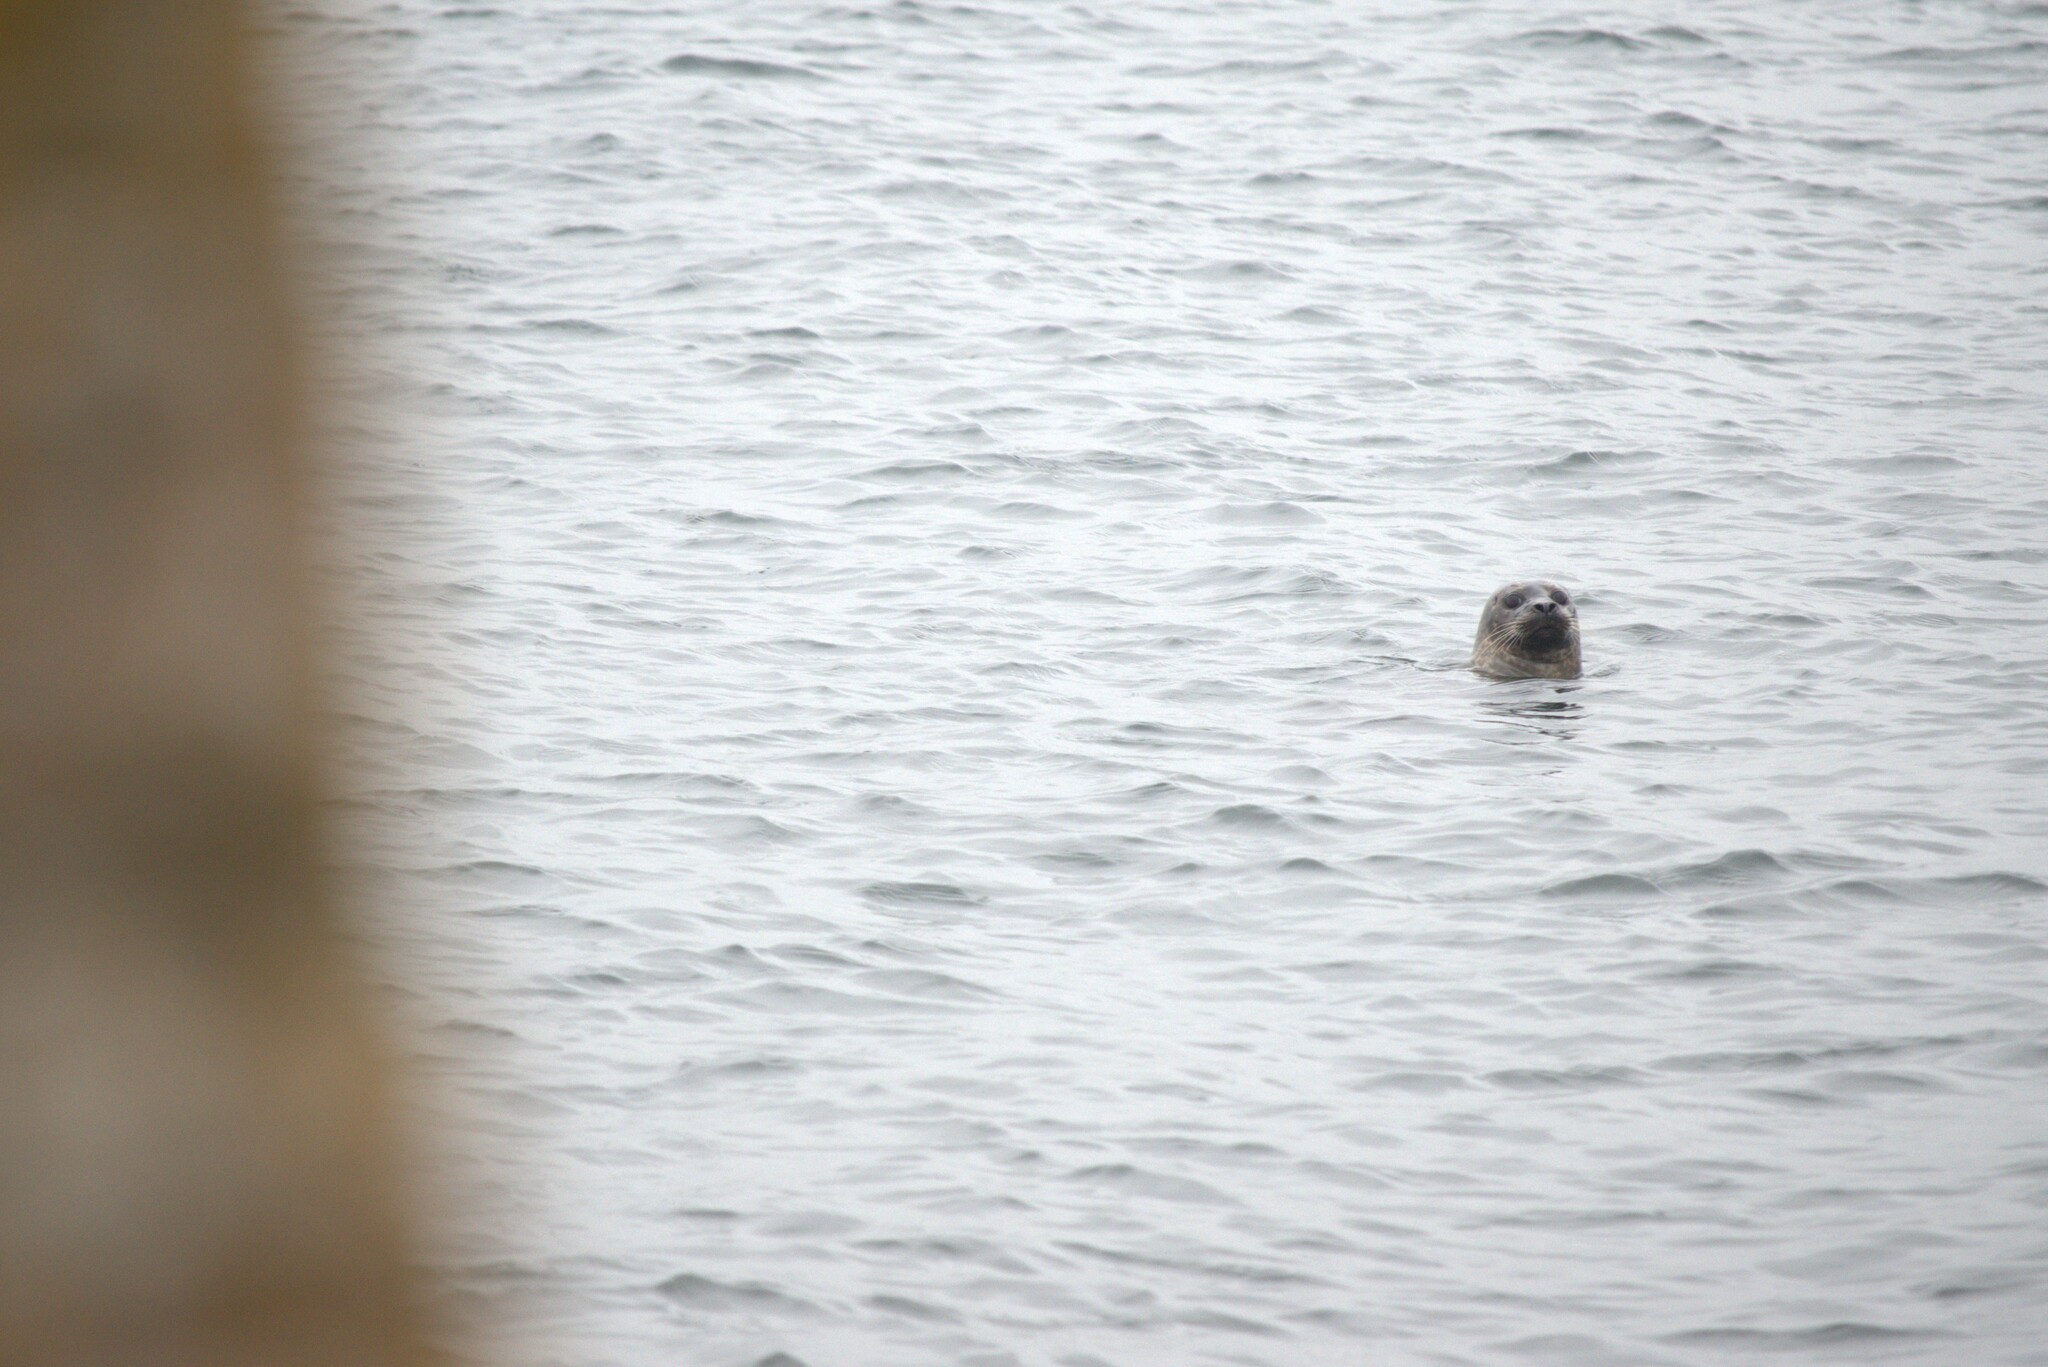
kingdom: Animalia
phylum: Chordata
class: Mammalia
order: Carnivora
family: Phocidae
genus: Phoca
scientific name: Phoca vitulina
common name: Harbor seal
